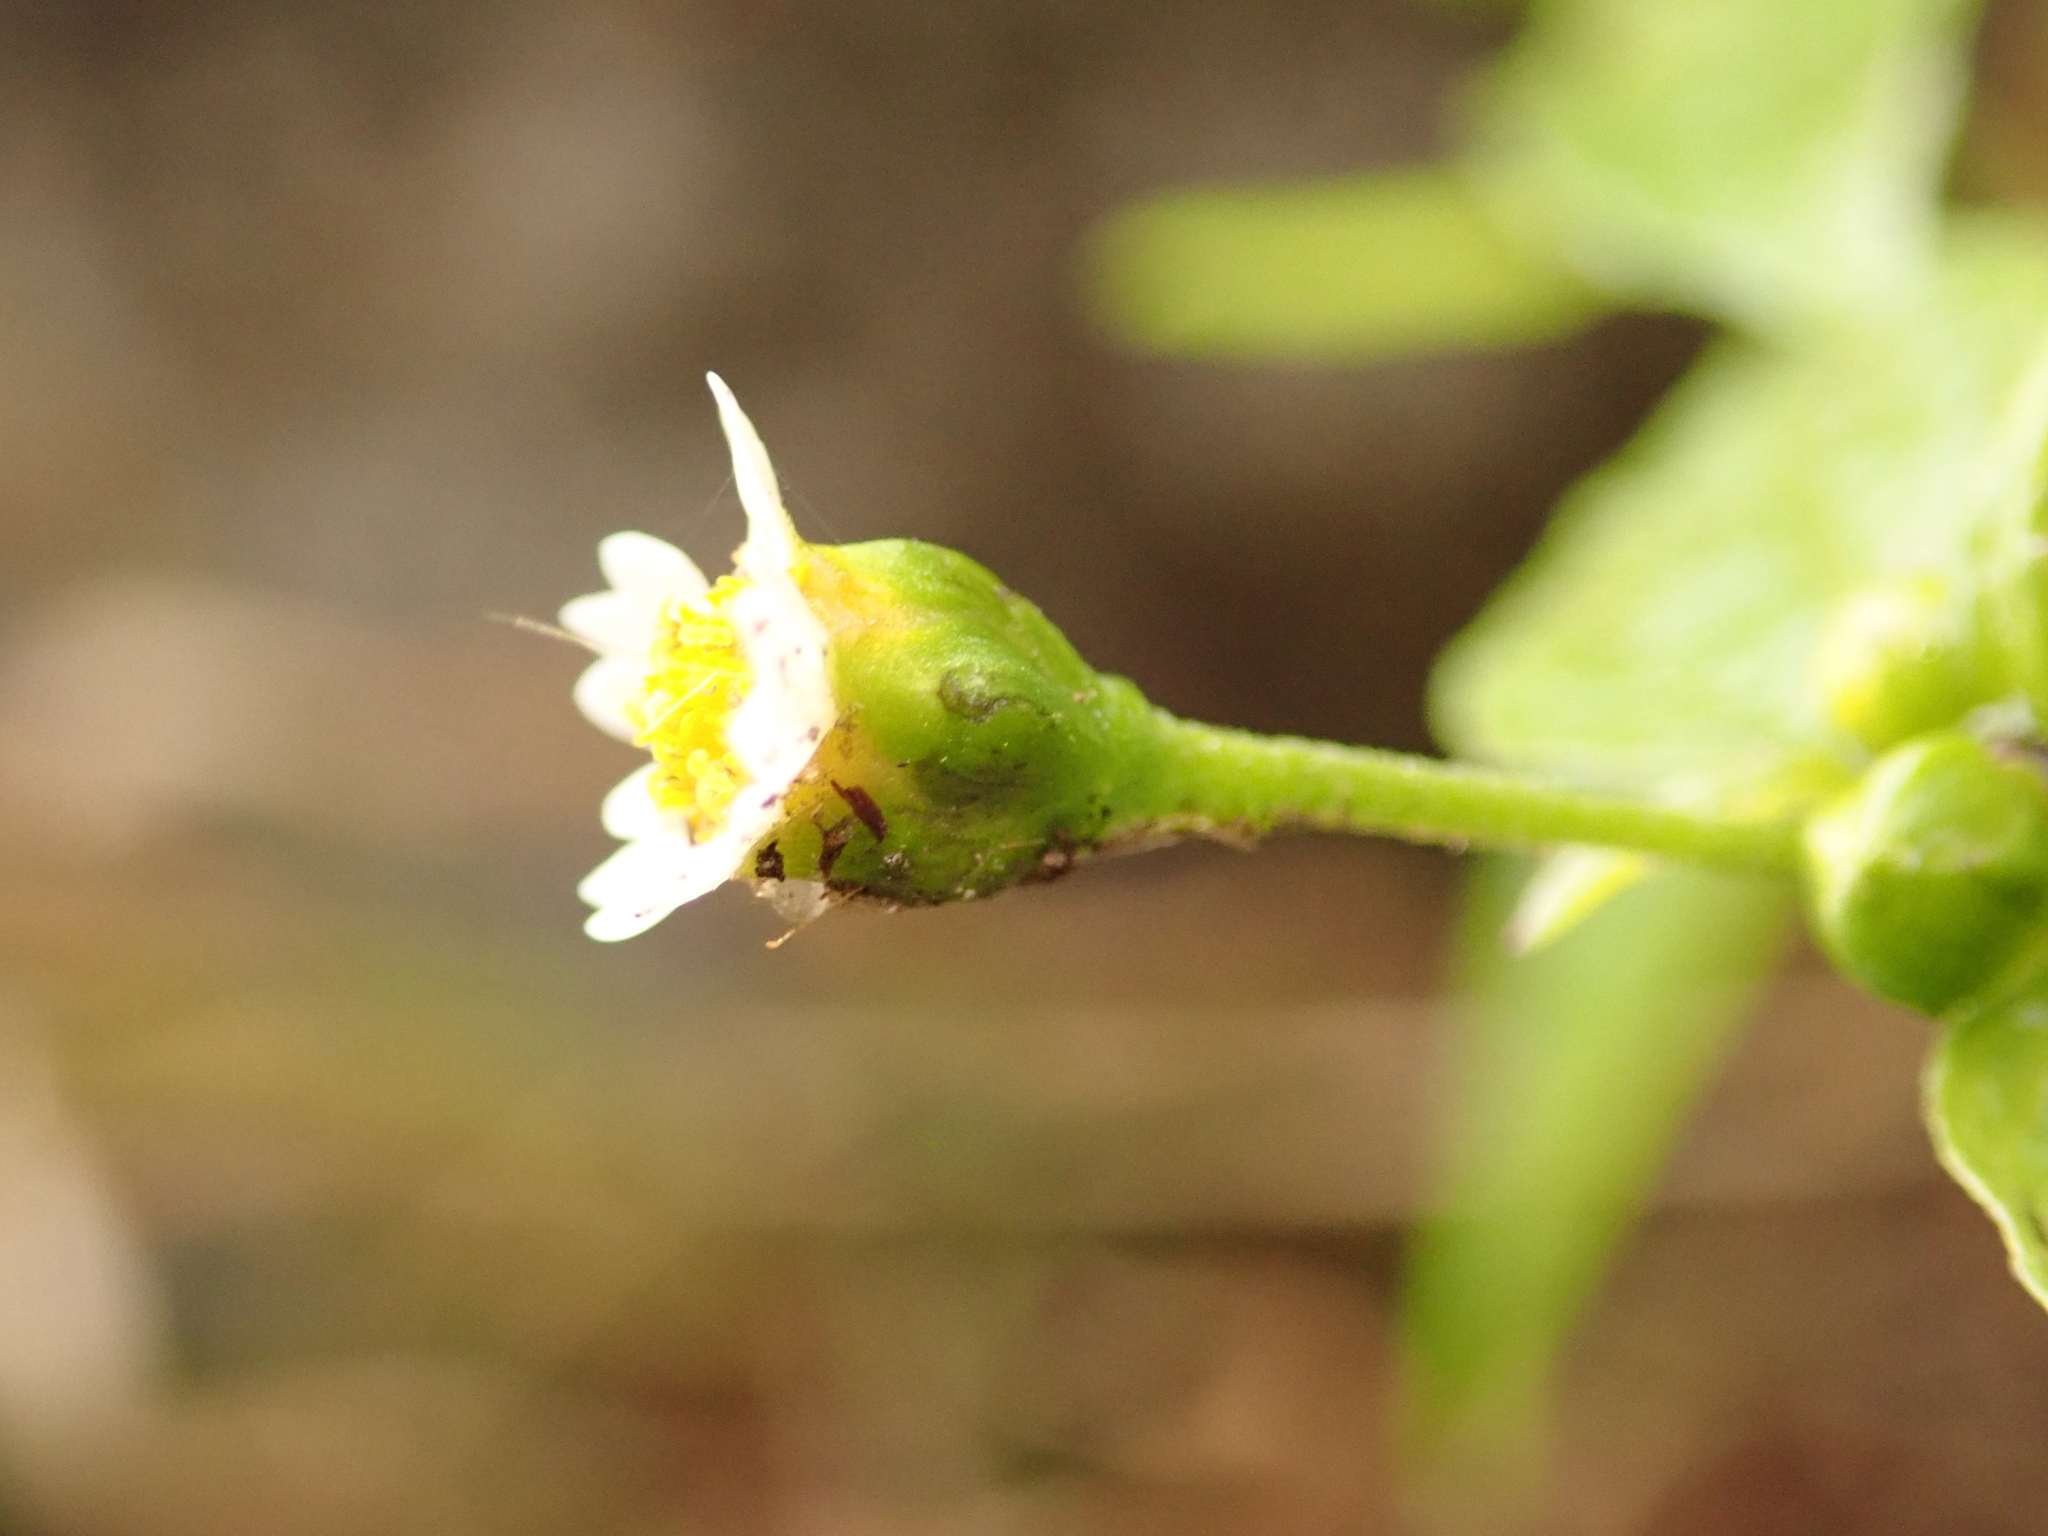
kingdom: Plantae
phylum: Tracheophyta
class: Magnoliopsida
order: Asterales
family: Asteraceae
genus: Galinsoga
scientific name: Galinsoga parviflora
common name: Gallant soldier
